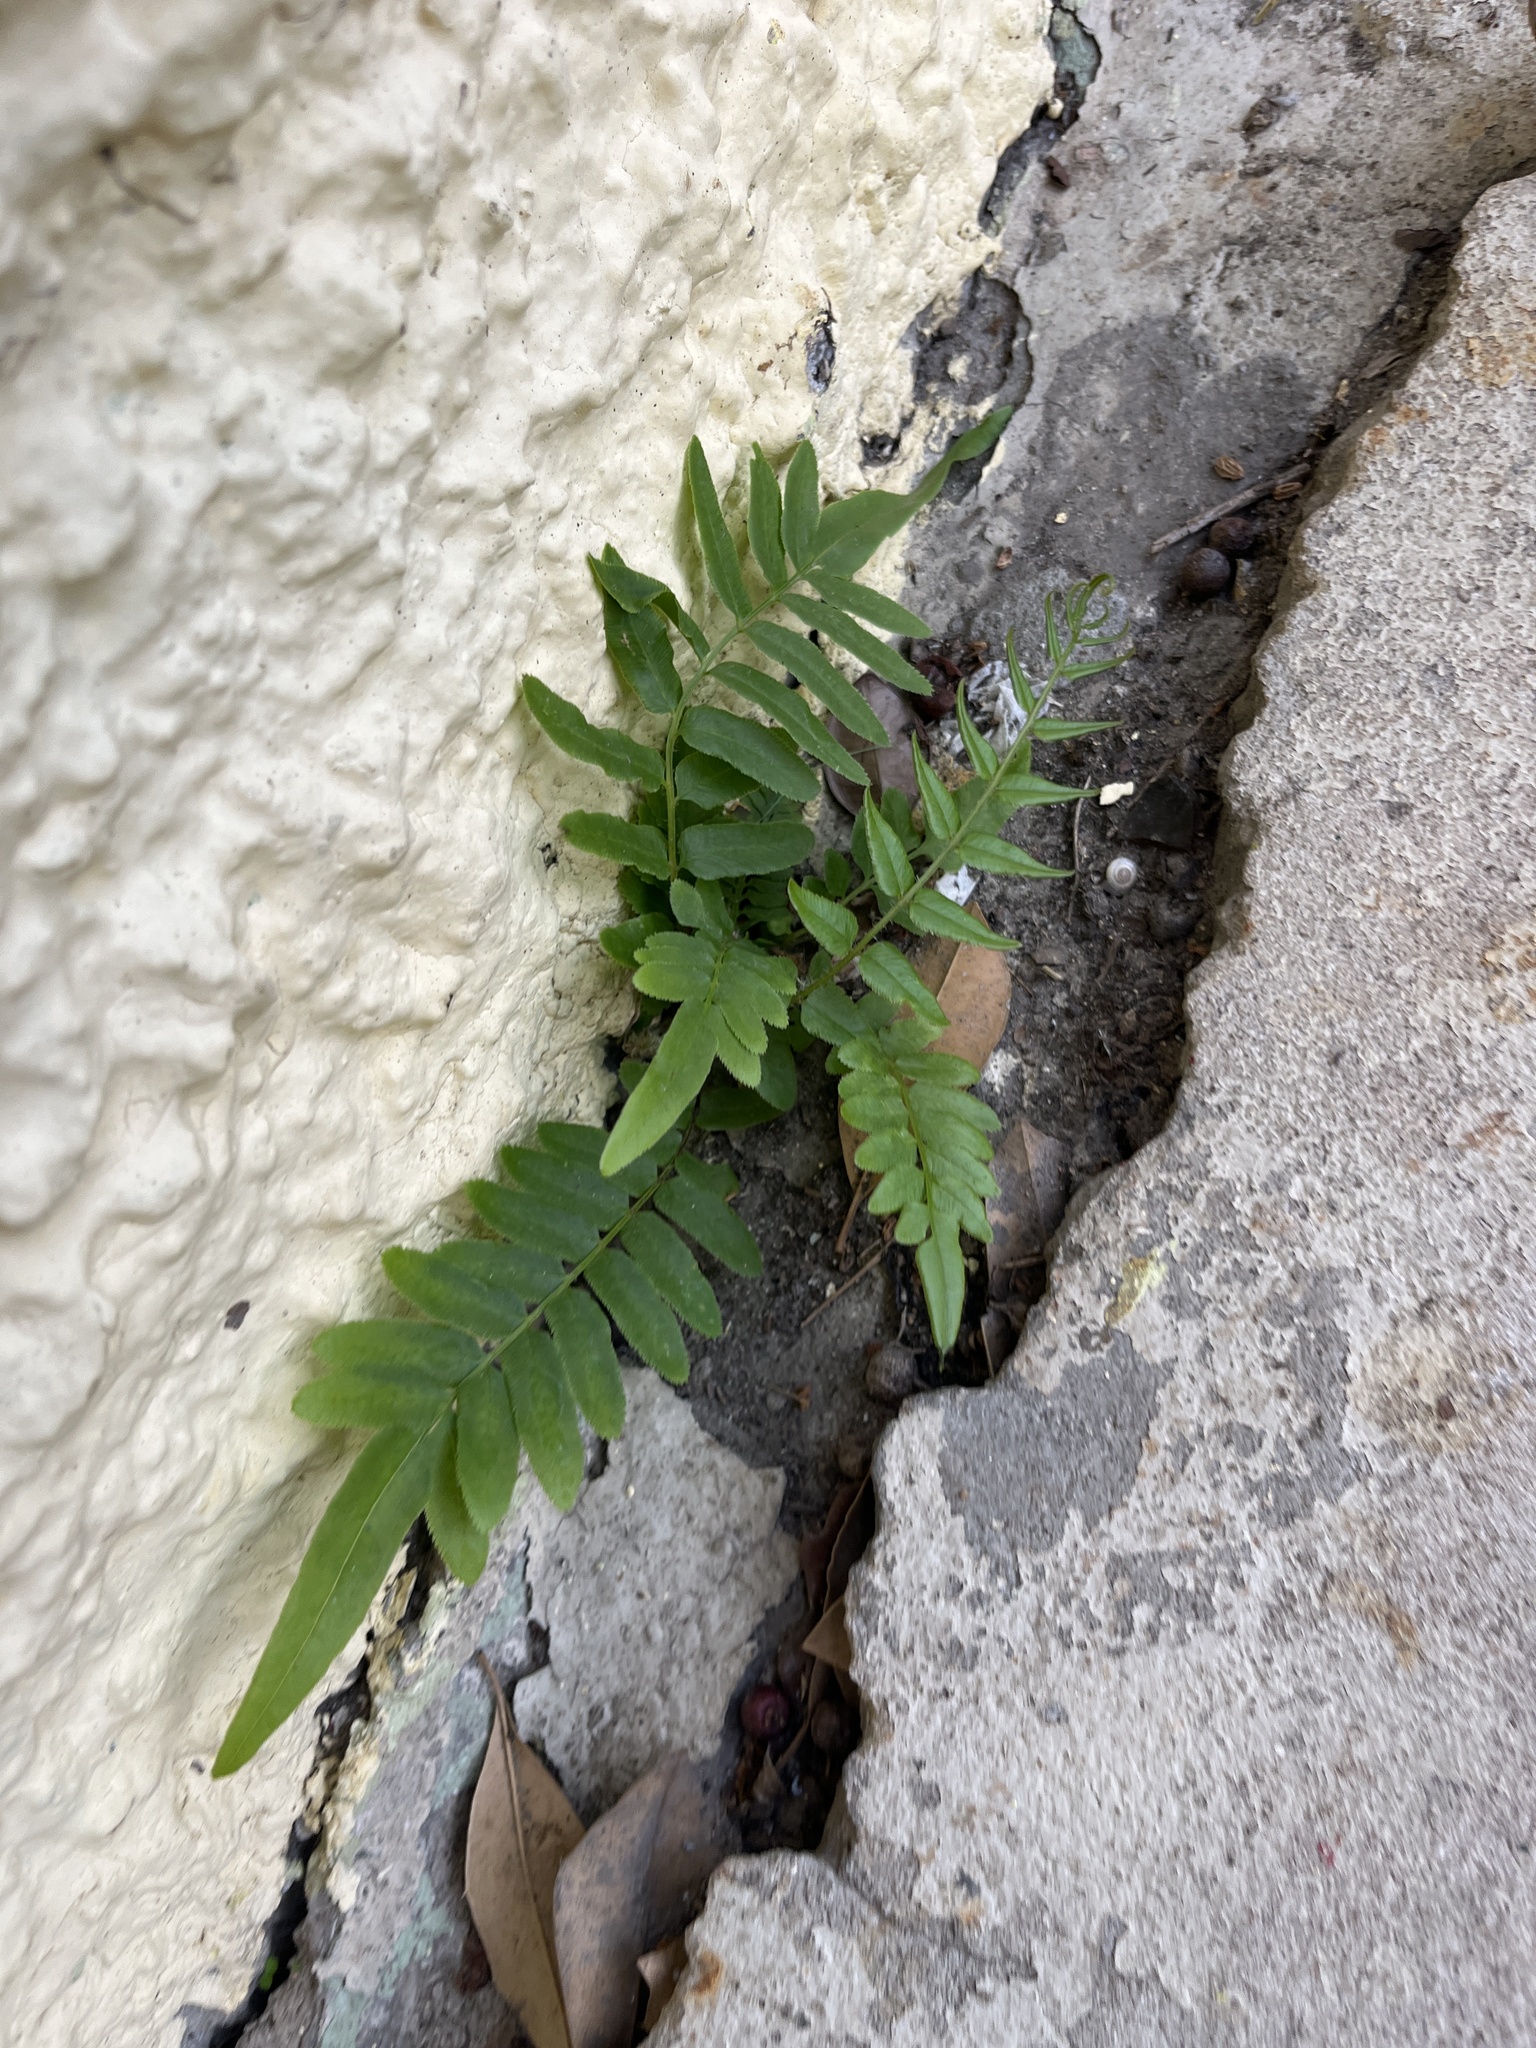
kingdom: Plantae
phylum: Tracheophyta
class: Polypodiopsida
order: Polypodiales
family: Pteridaceae
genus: Pteris
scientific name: Pteris vittata
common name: Ladder brake
